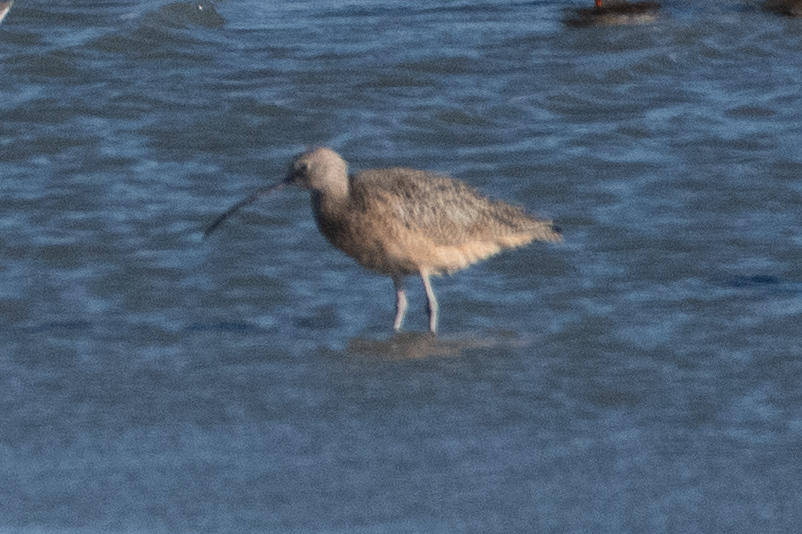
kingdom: Animalia
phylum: Chordata
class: Aves
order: Charadriiformes
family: Scolopacidae
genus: Numenius
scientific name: Numenius americanus
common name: Long-billed curlew
